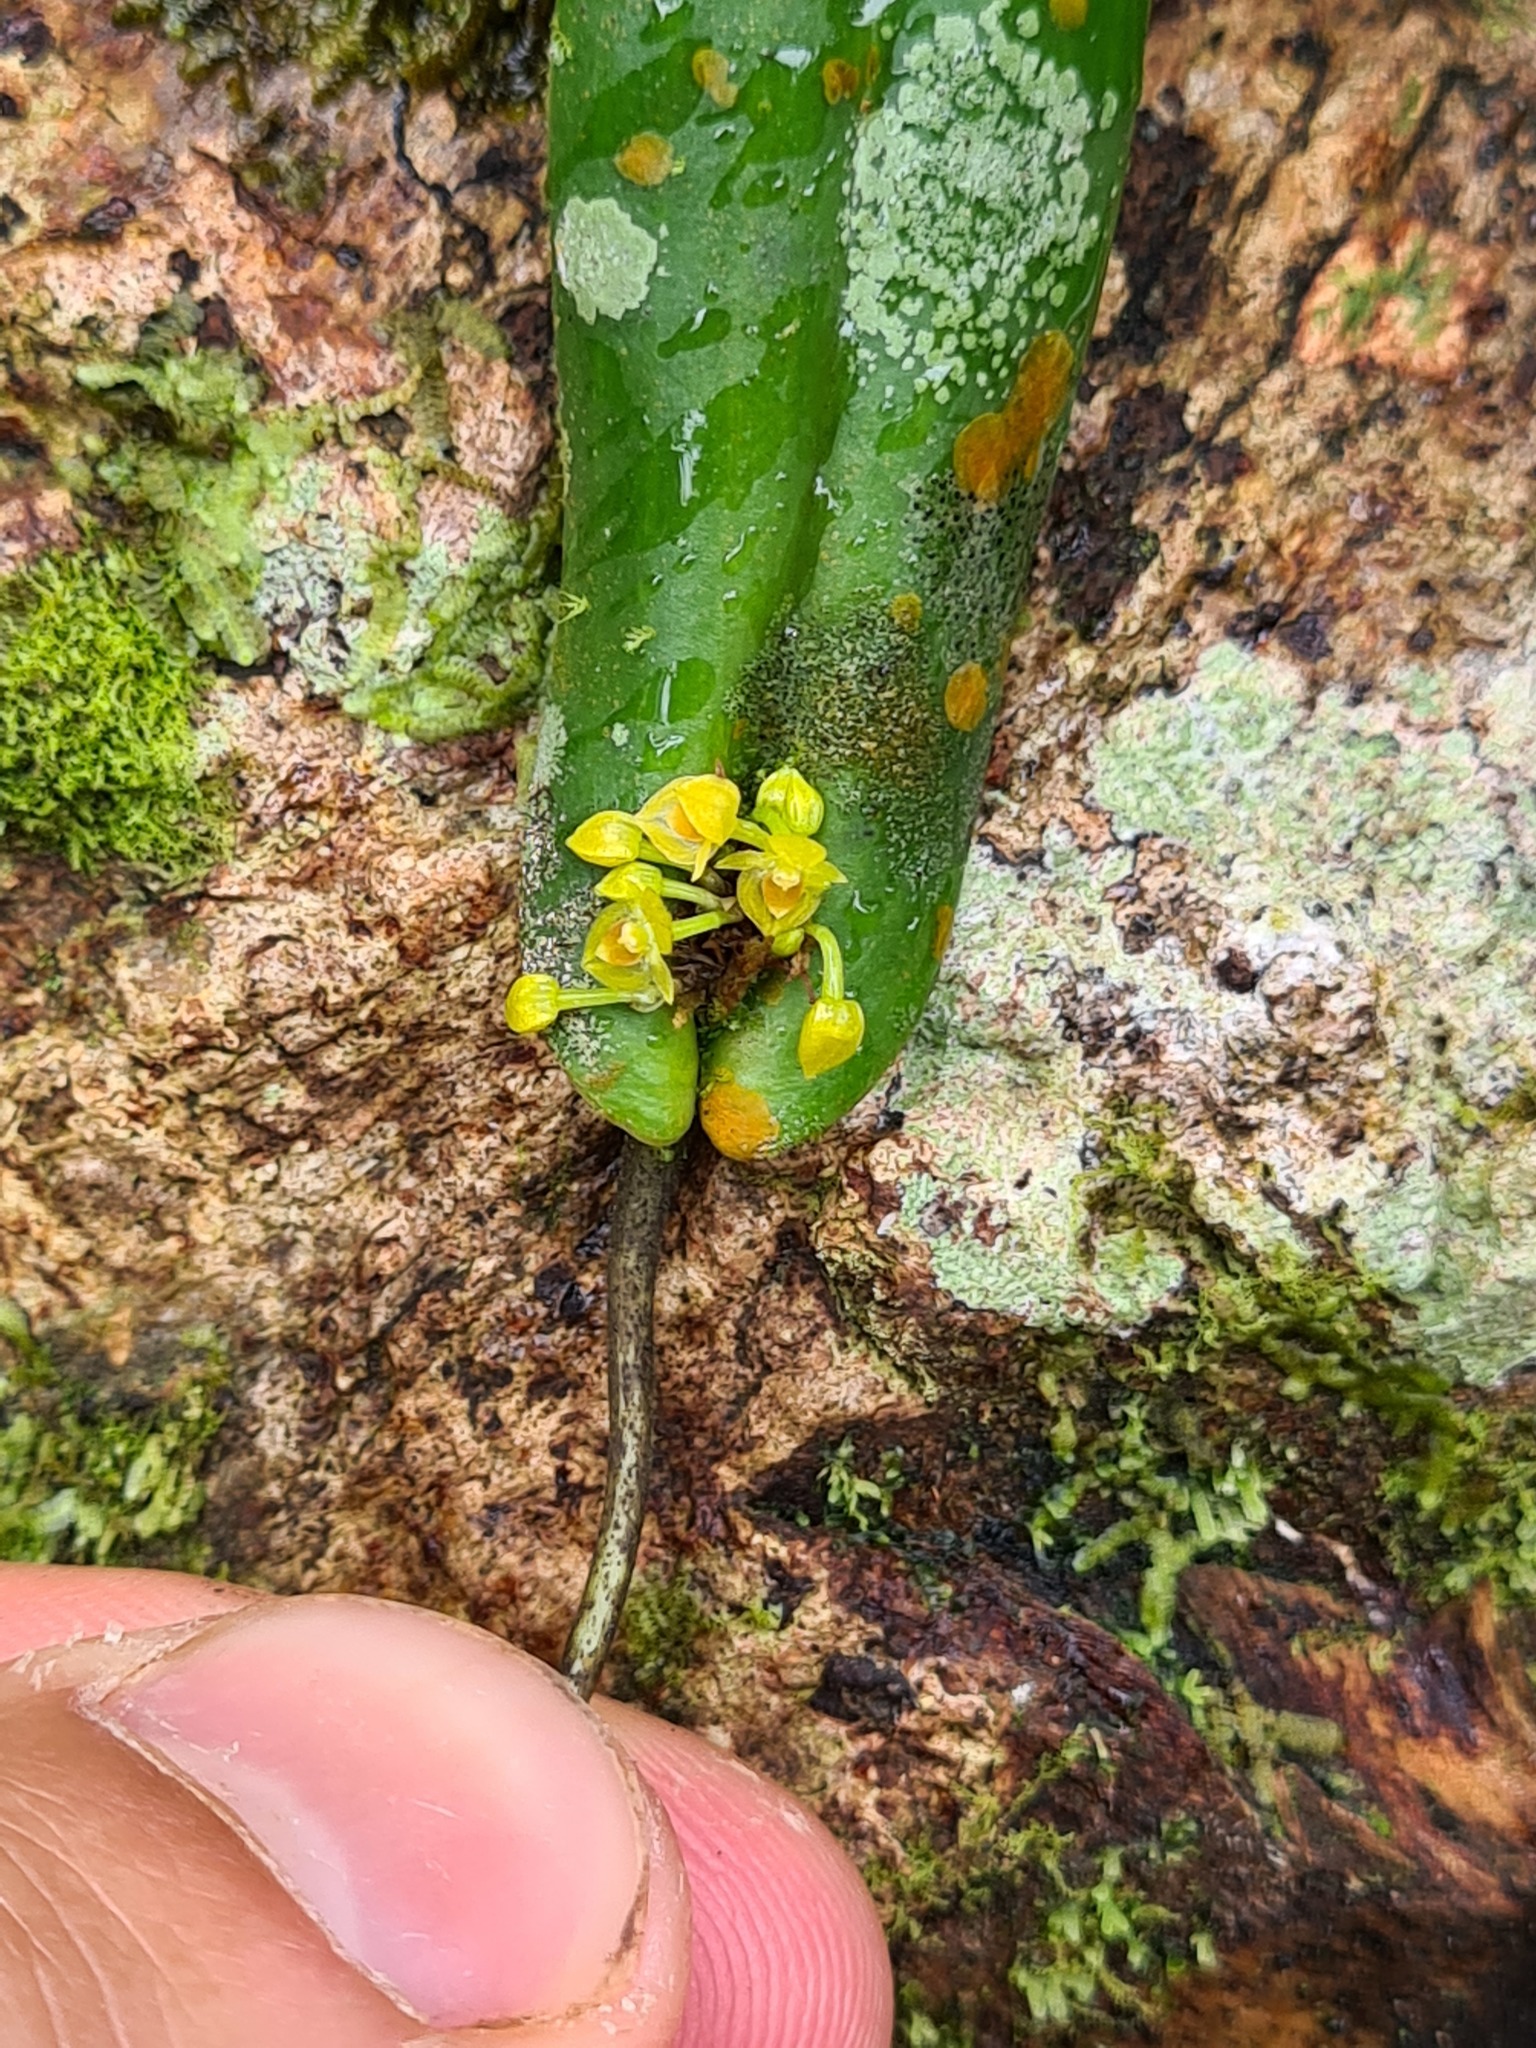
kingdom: Plantae
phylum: Tracheophyta
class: Liliopsida
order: Asparagales
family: Orchidaceae
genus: Pleurothallis
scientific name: Pleurothallis dibolia
